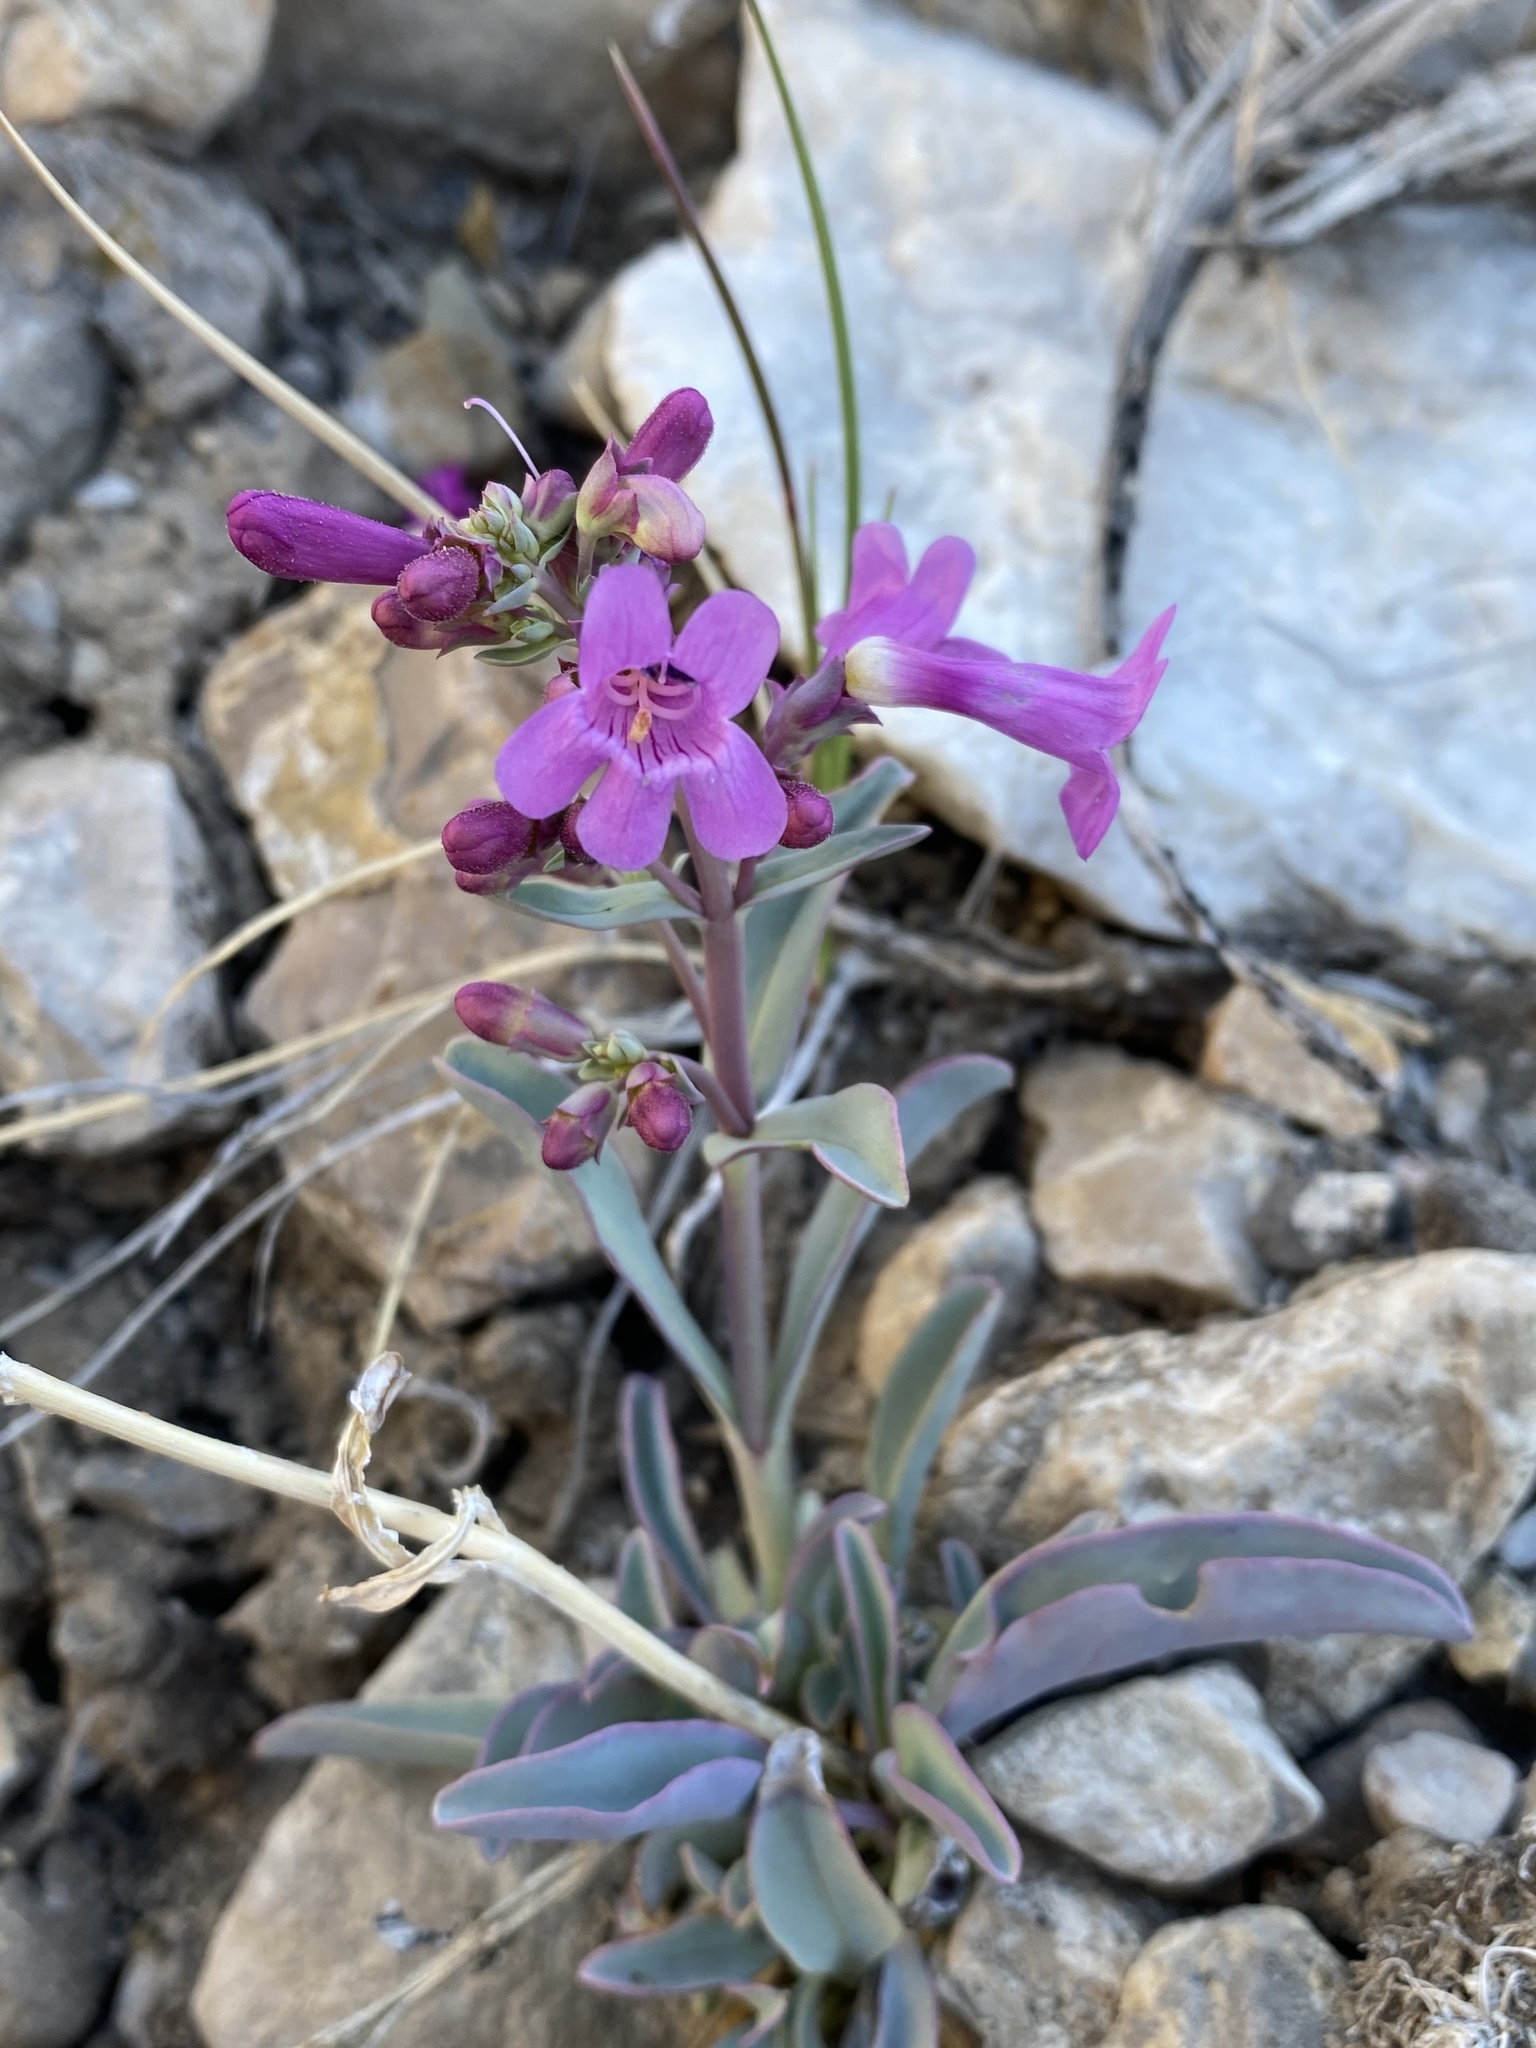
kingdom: Plantae
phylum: Tracheophyta
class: Magnoliopsida
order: Lamiales
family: Plantaginaceae
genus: Penstemon
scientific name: Penstemon confusus
